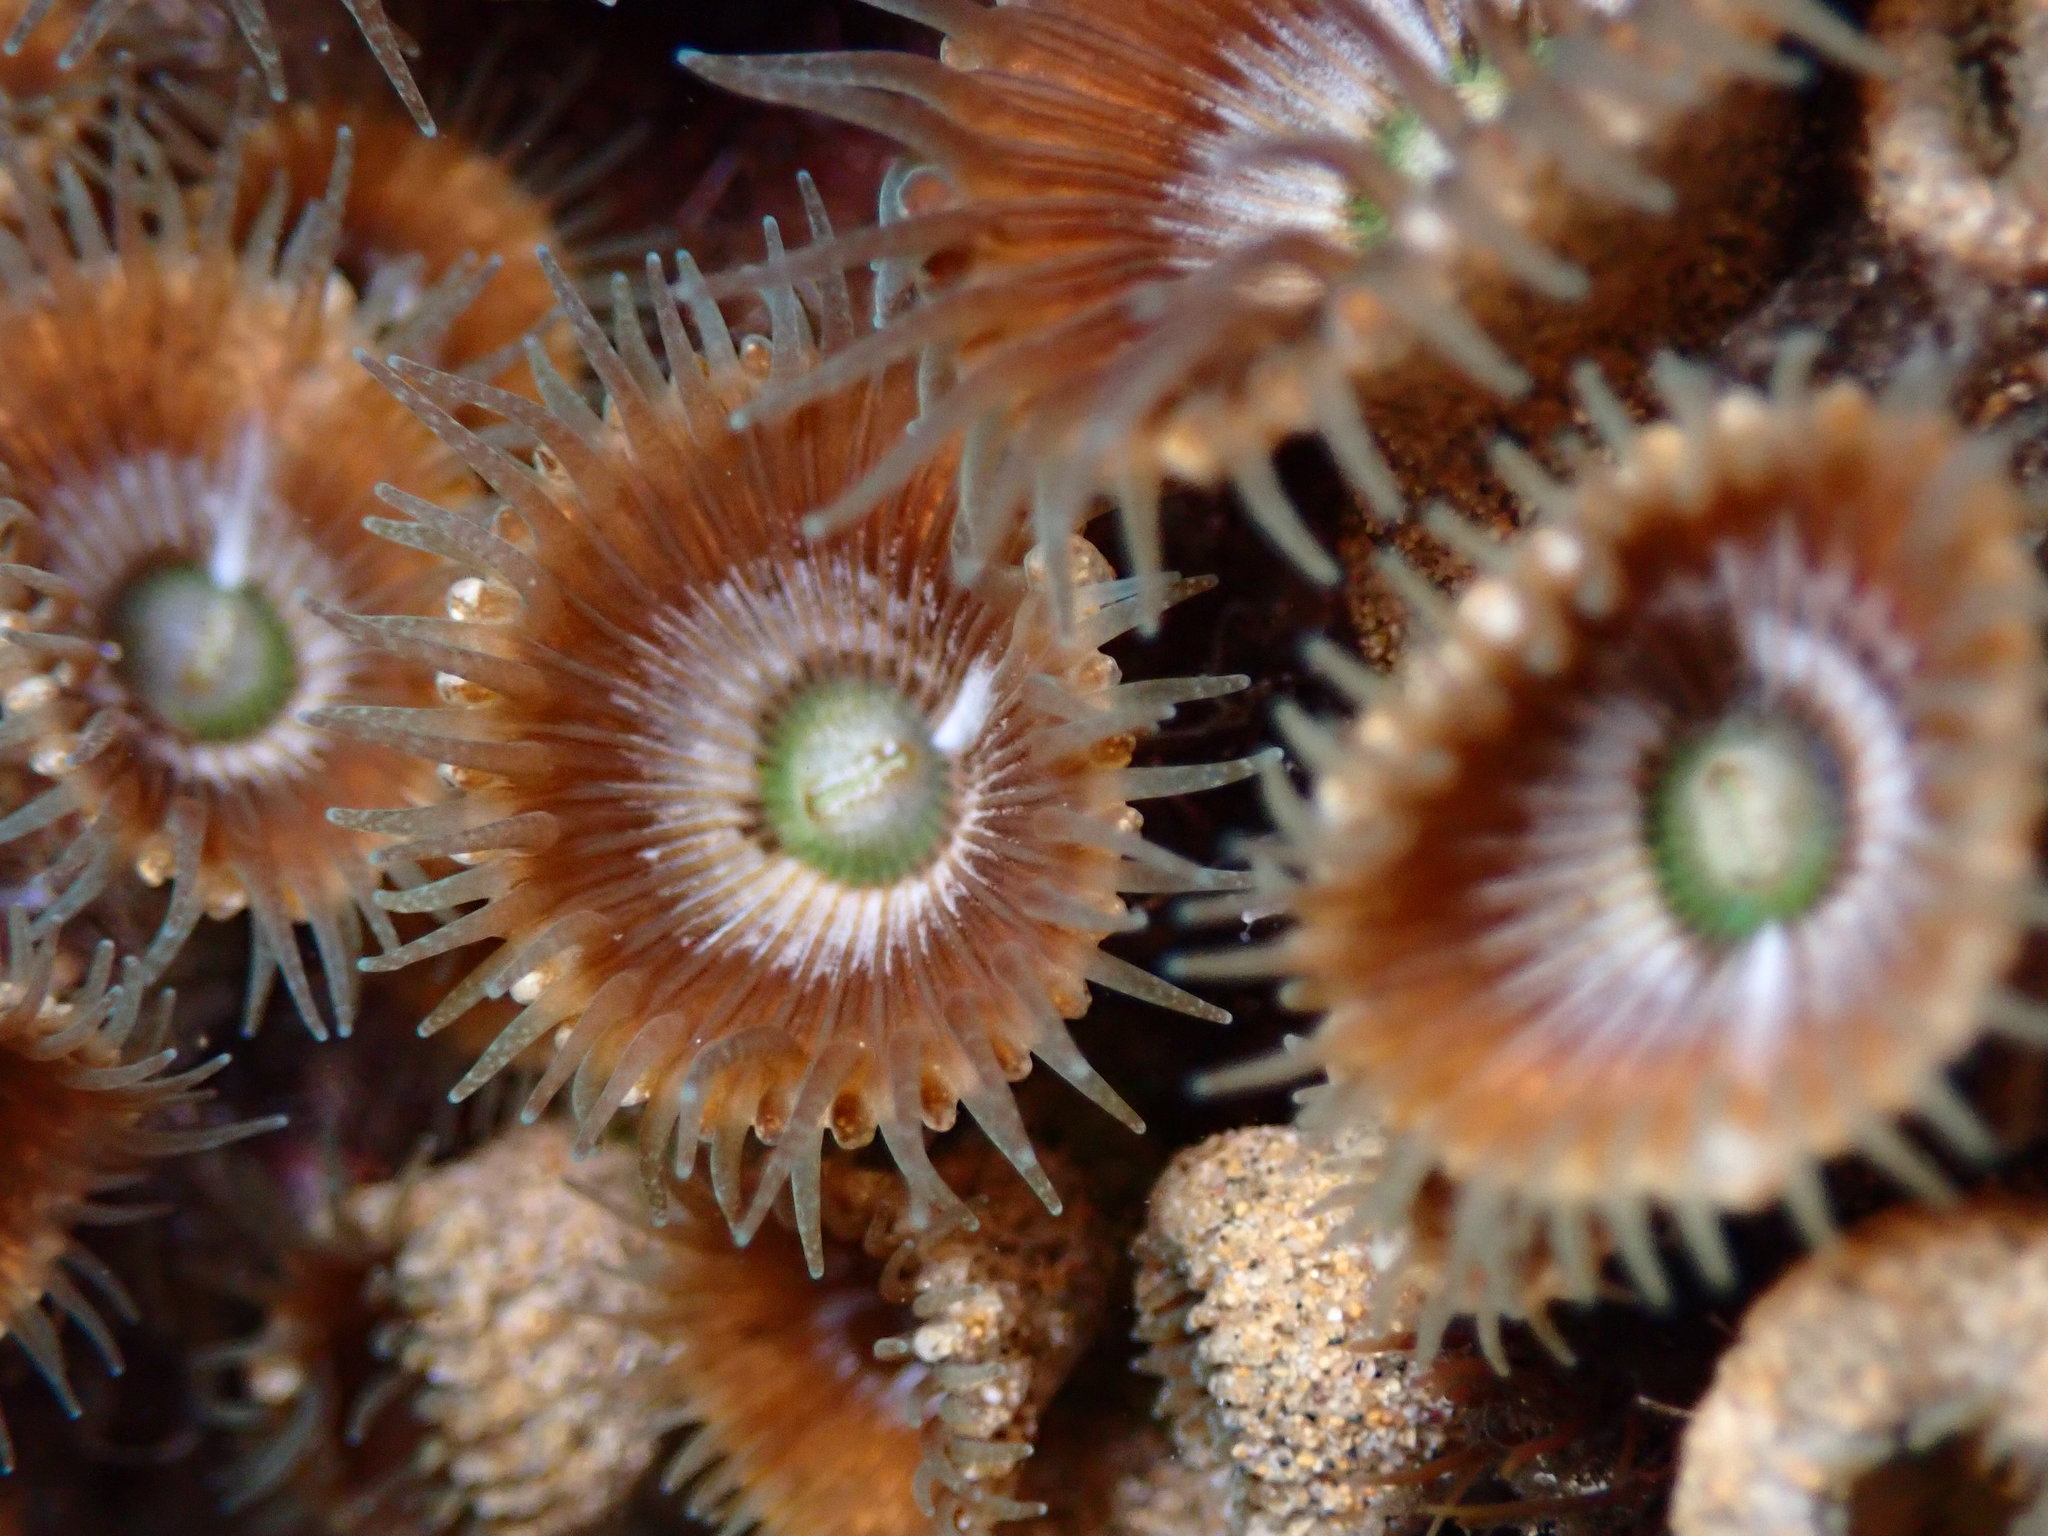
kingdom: Animalia
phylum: Cnidaria
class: Anthozoa
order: Zoantharia
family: Sphenopidae
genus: Palythoa
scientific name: Palythoa mutuki
